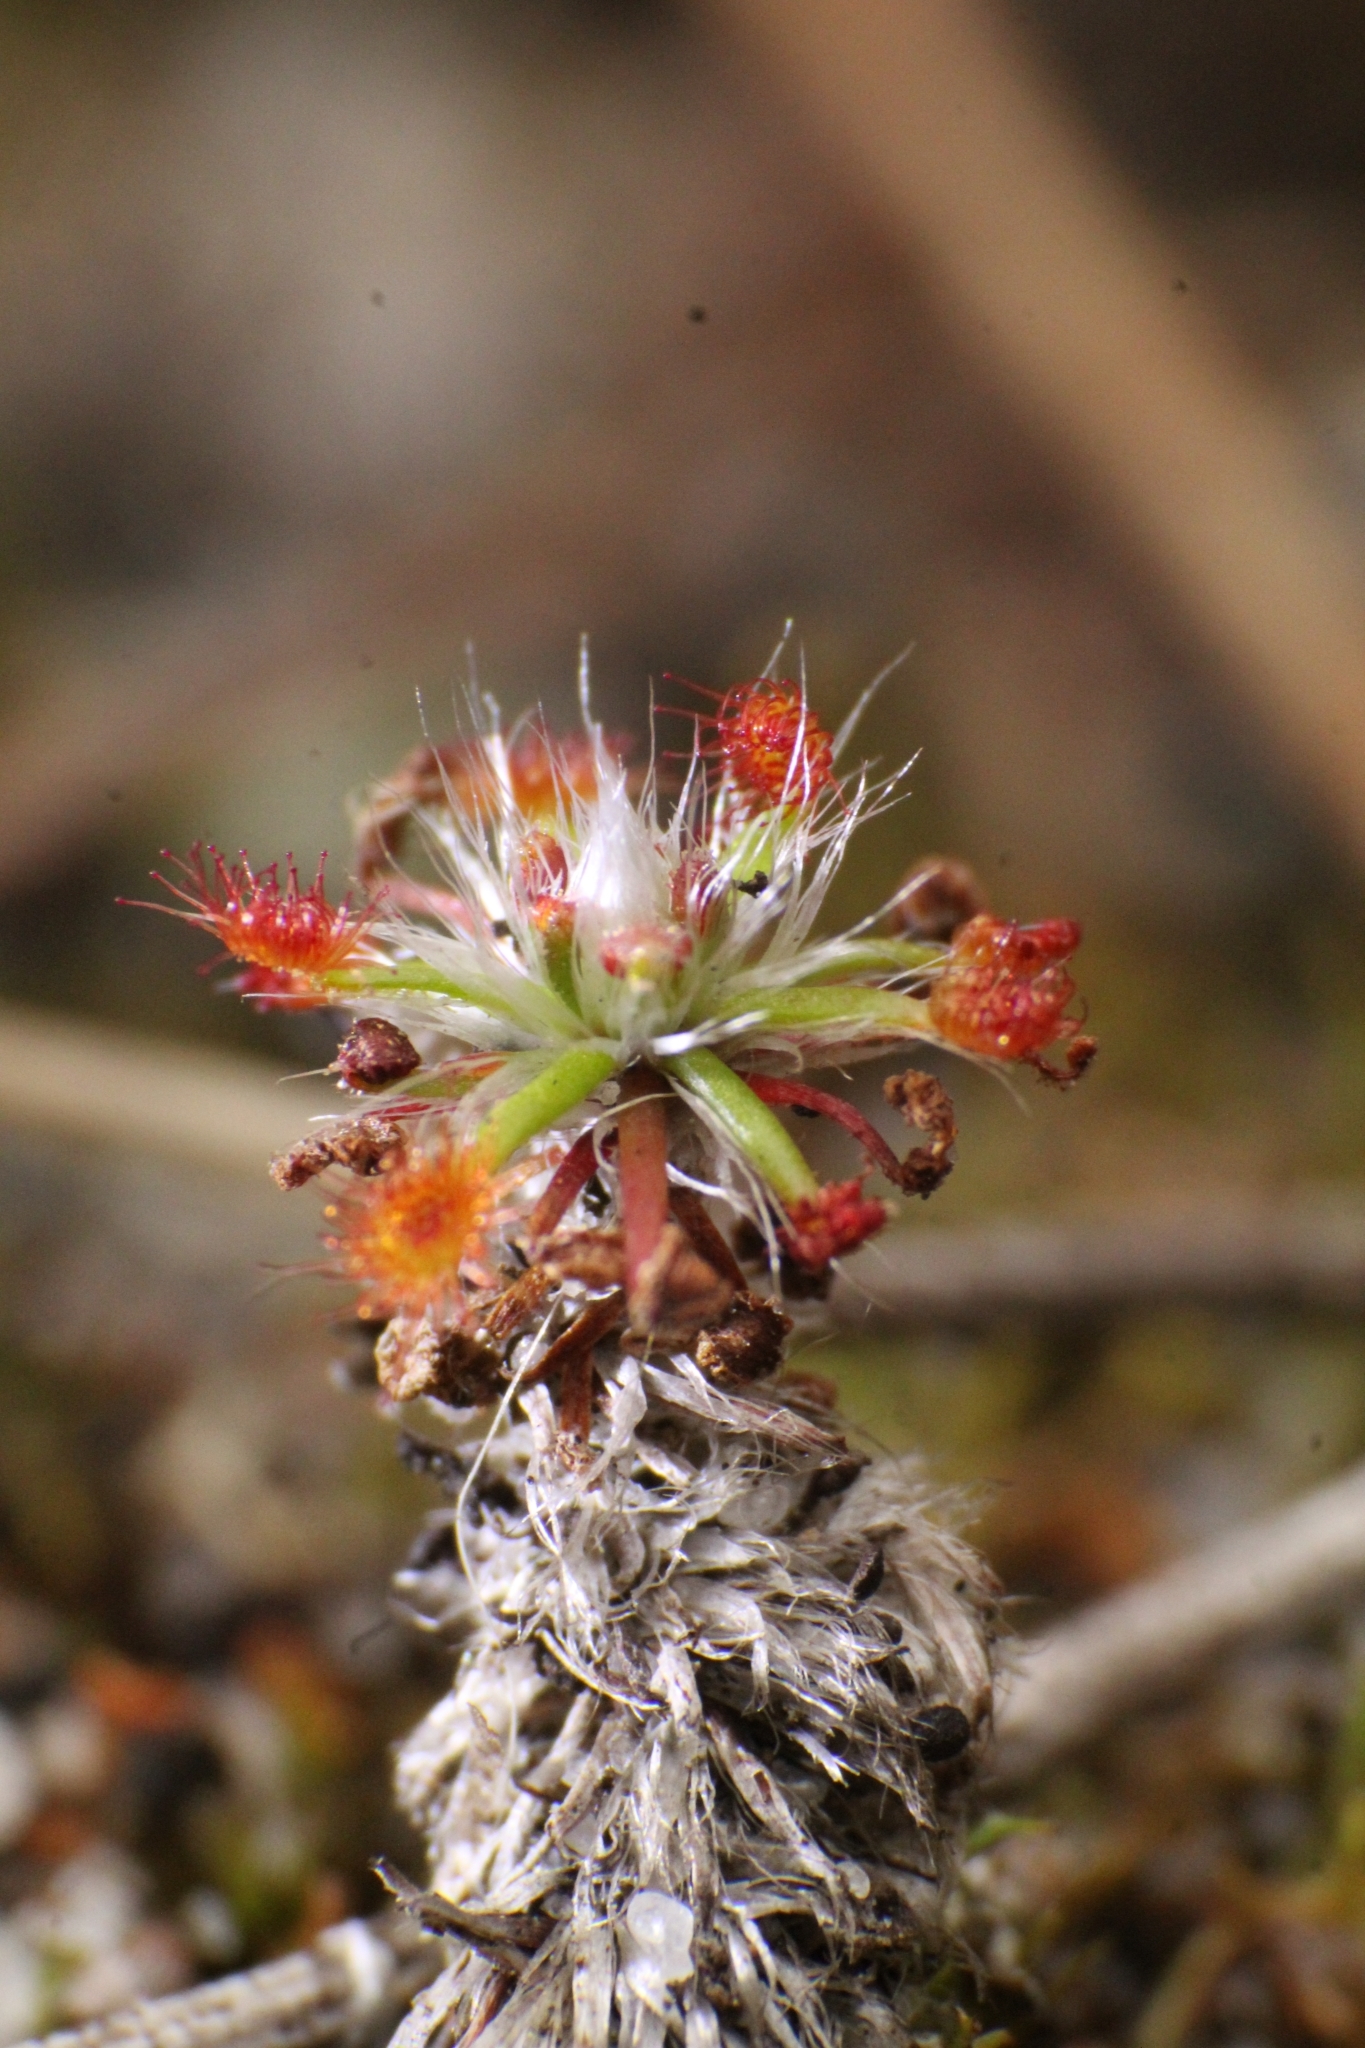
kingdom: Plantae
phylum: Tracheophyta
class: Magnoliopsida
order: Caryophyllales
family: Droseraceae
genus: Drosera
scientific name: Drosera paleacea
